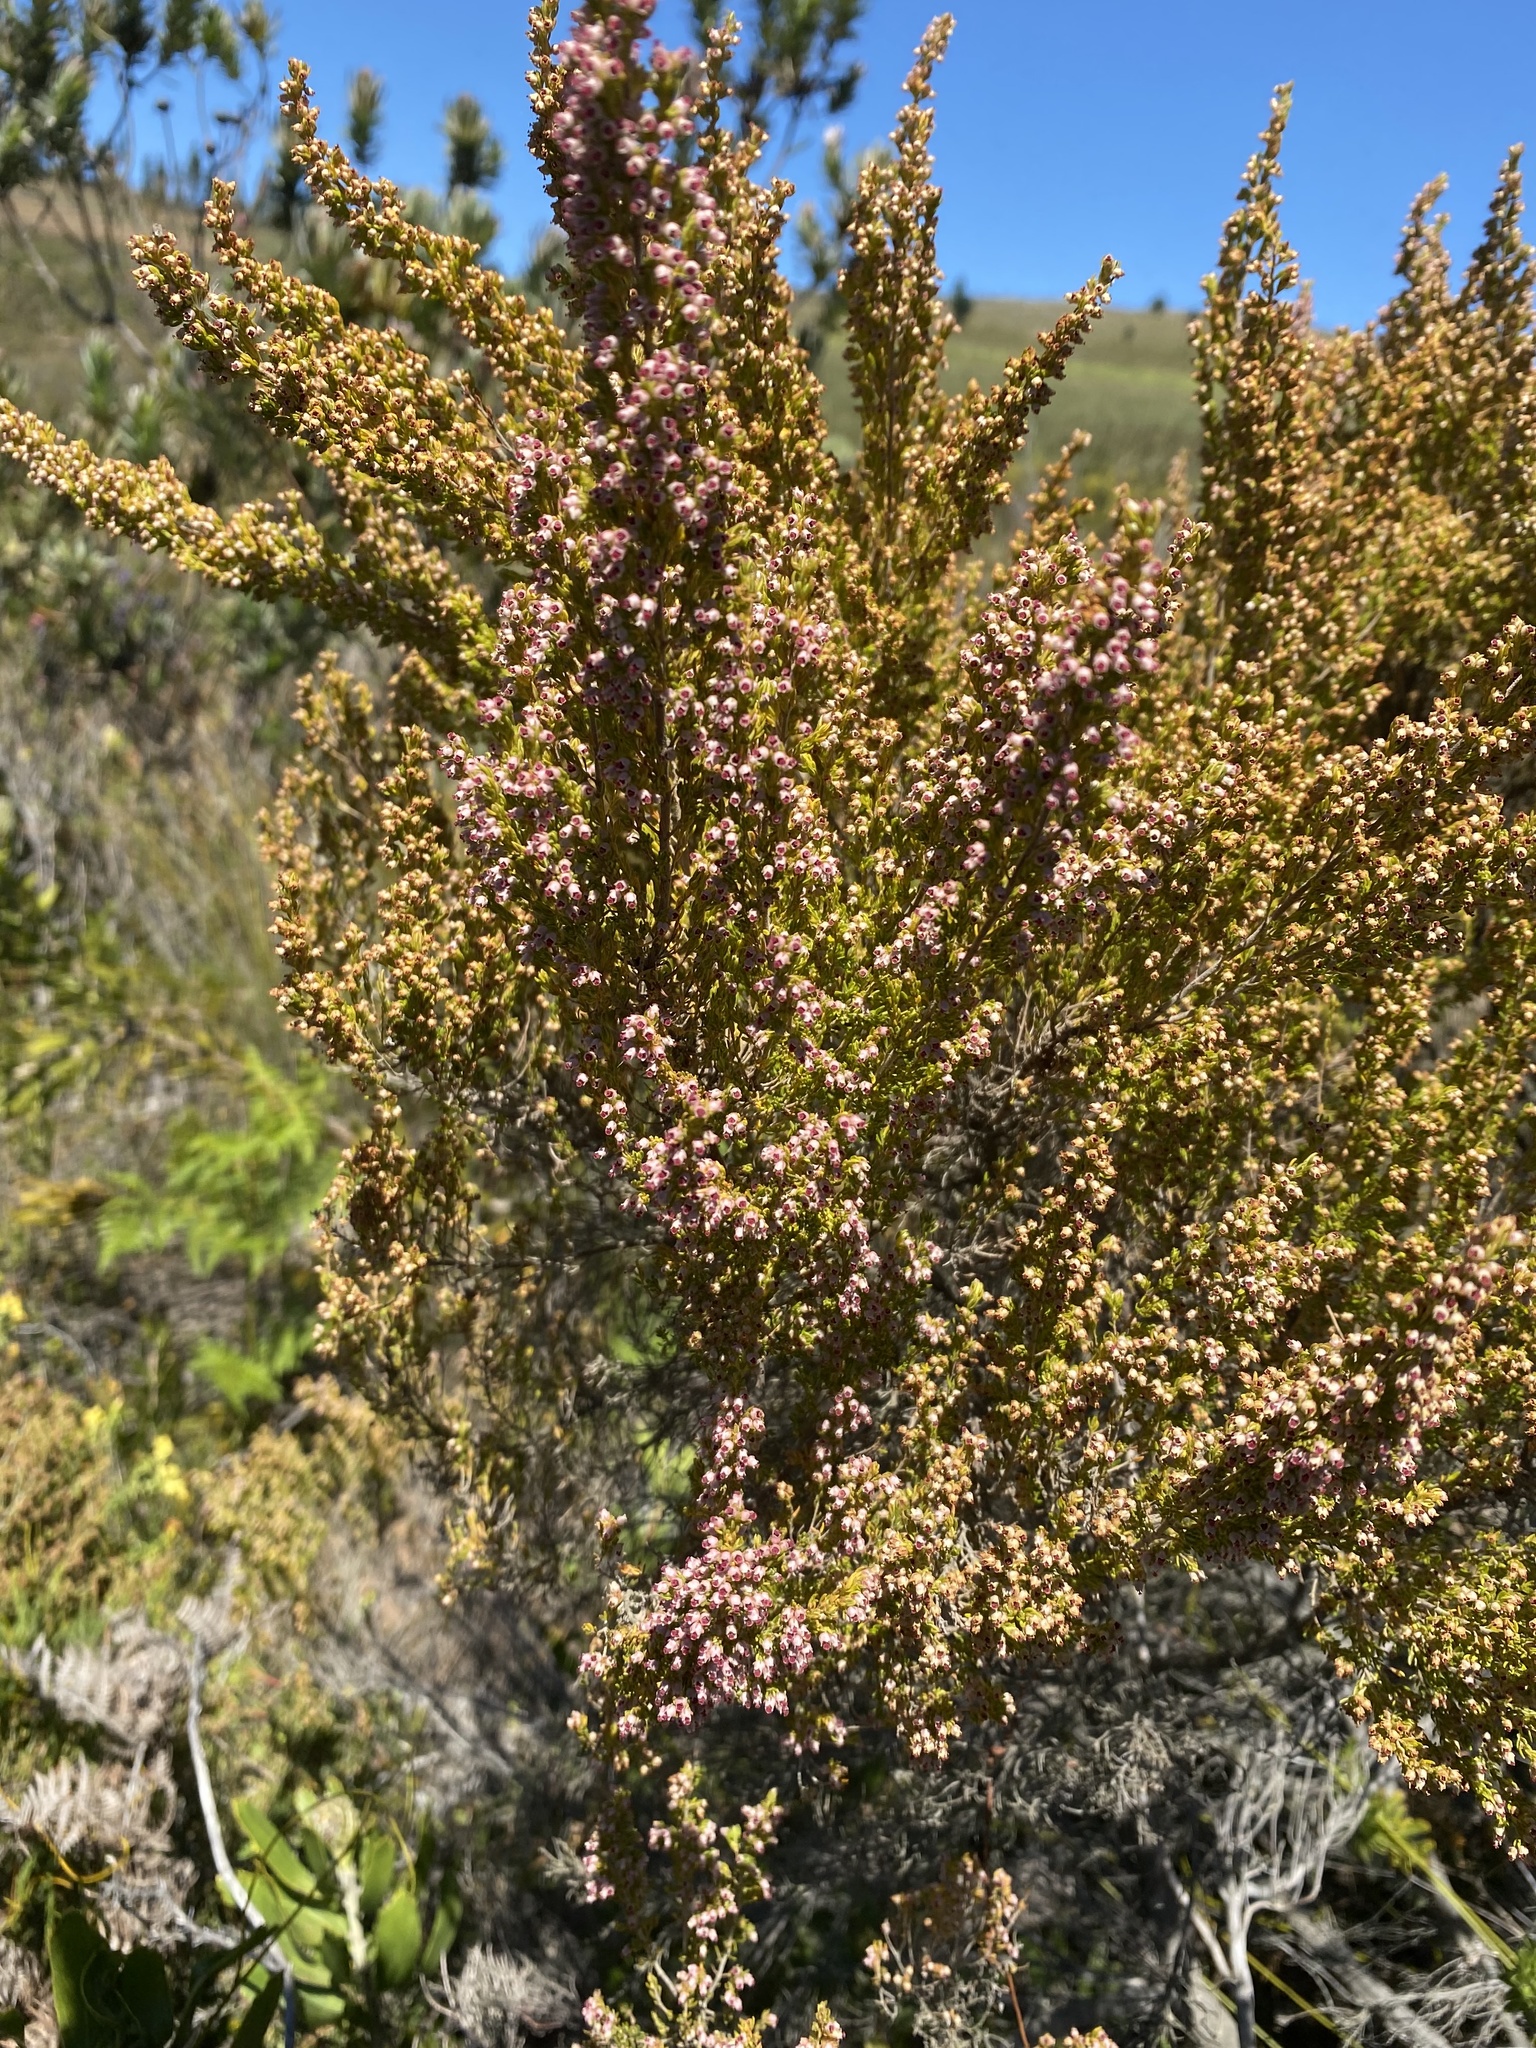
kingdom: Plantae
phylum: Tracheophyta
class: Magnoliopsida
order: Ericales
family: Ericaceae
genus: Erica
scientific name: Erica hispidula
